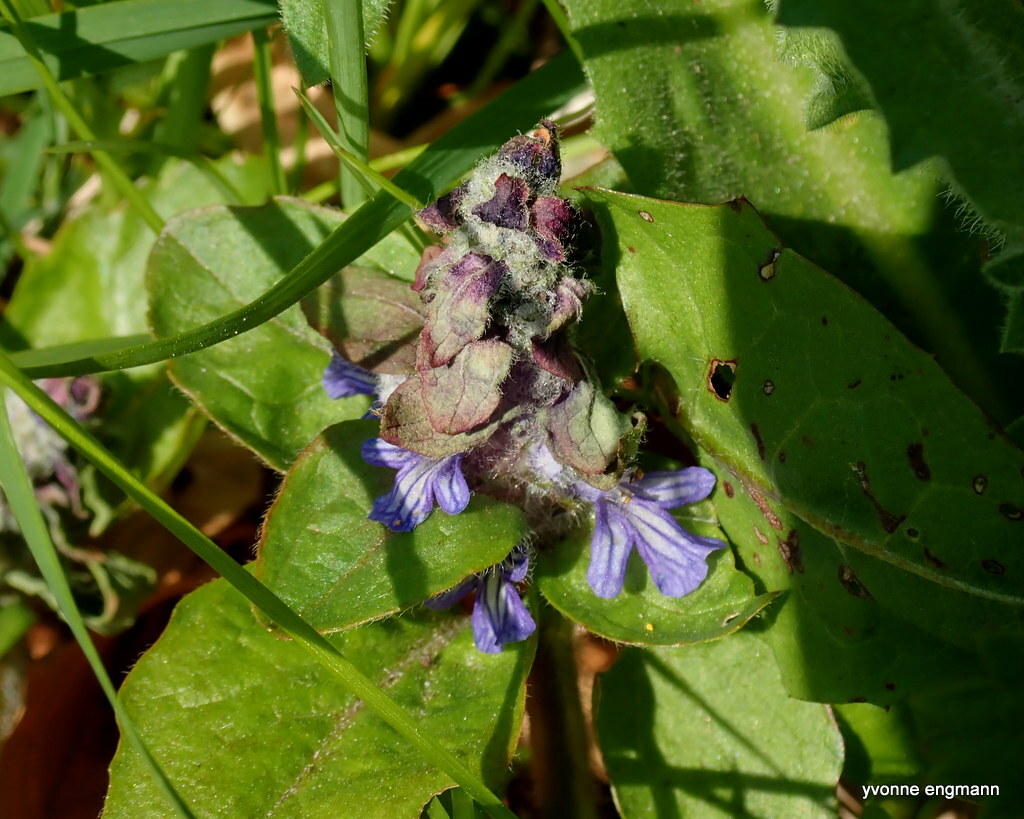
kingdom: Plantae
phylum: Tracheophyta
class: Magnoliopsida
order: Lamiales
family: Lamiaceae
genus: Ajuga
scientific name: Ajuga reptans
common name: Bugle
